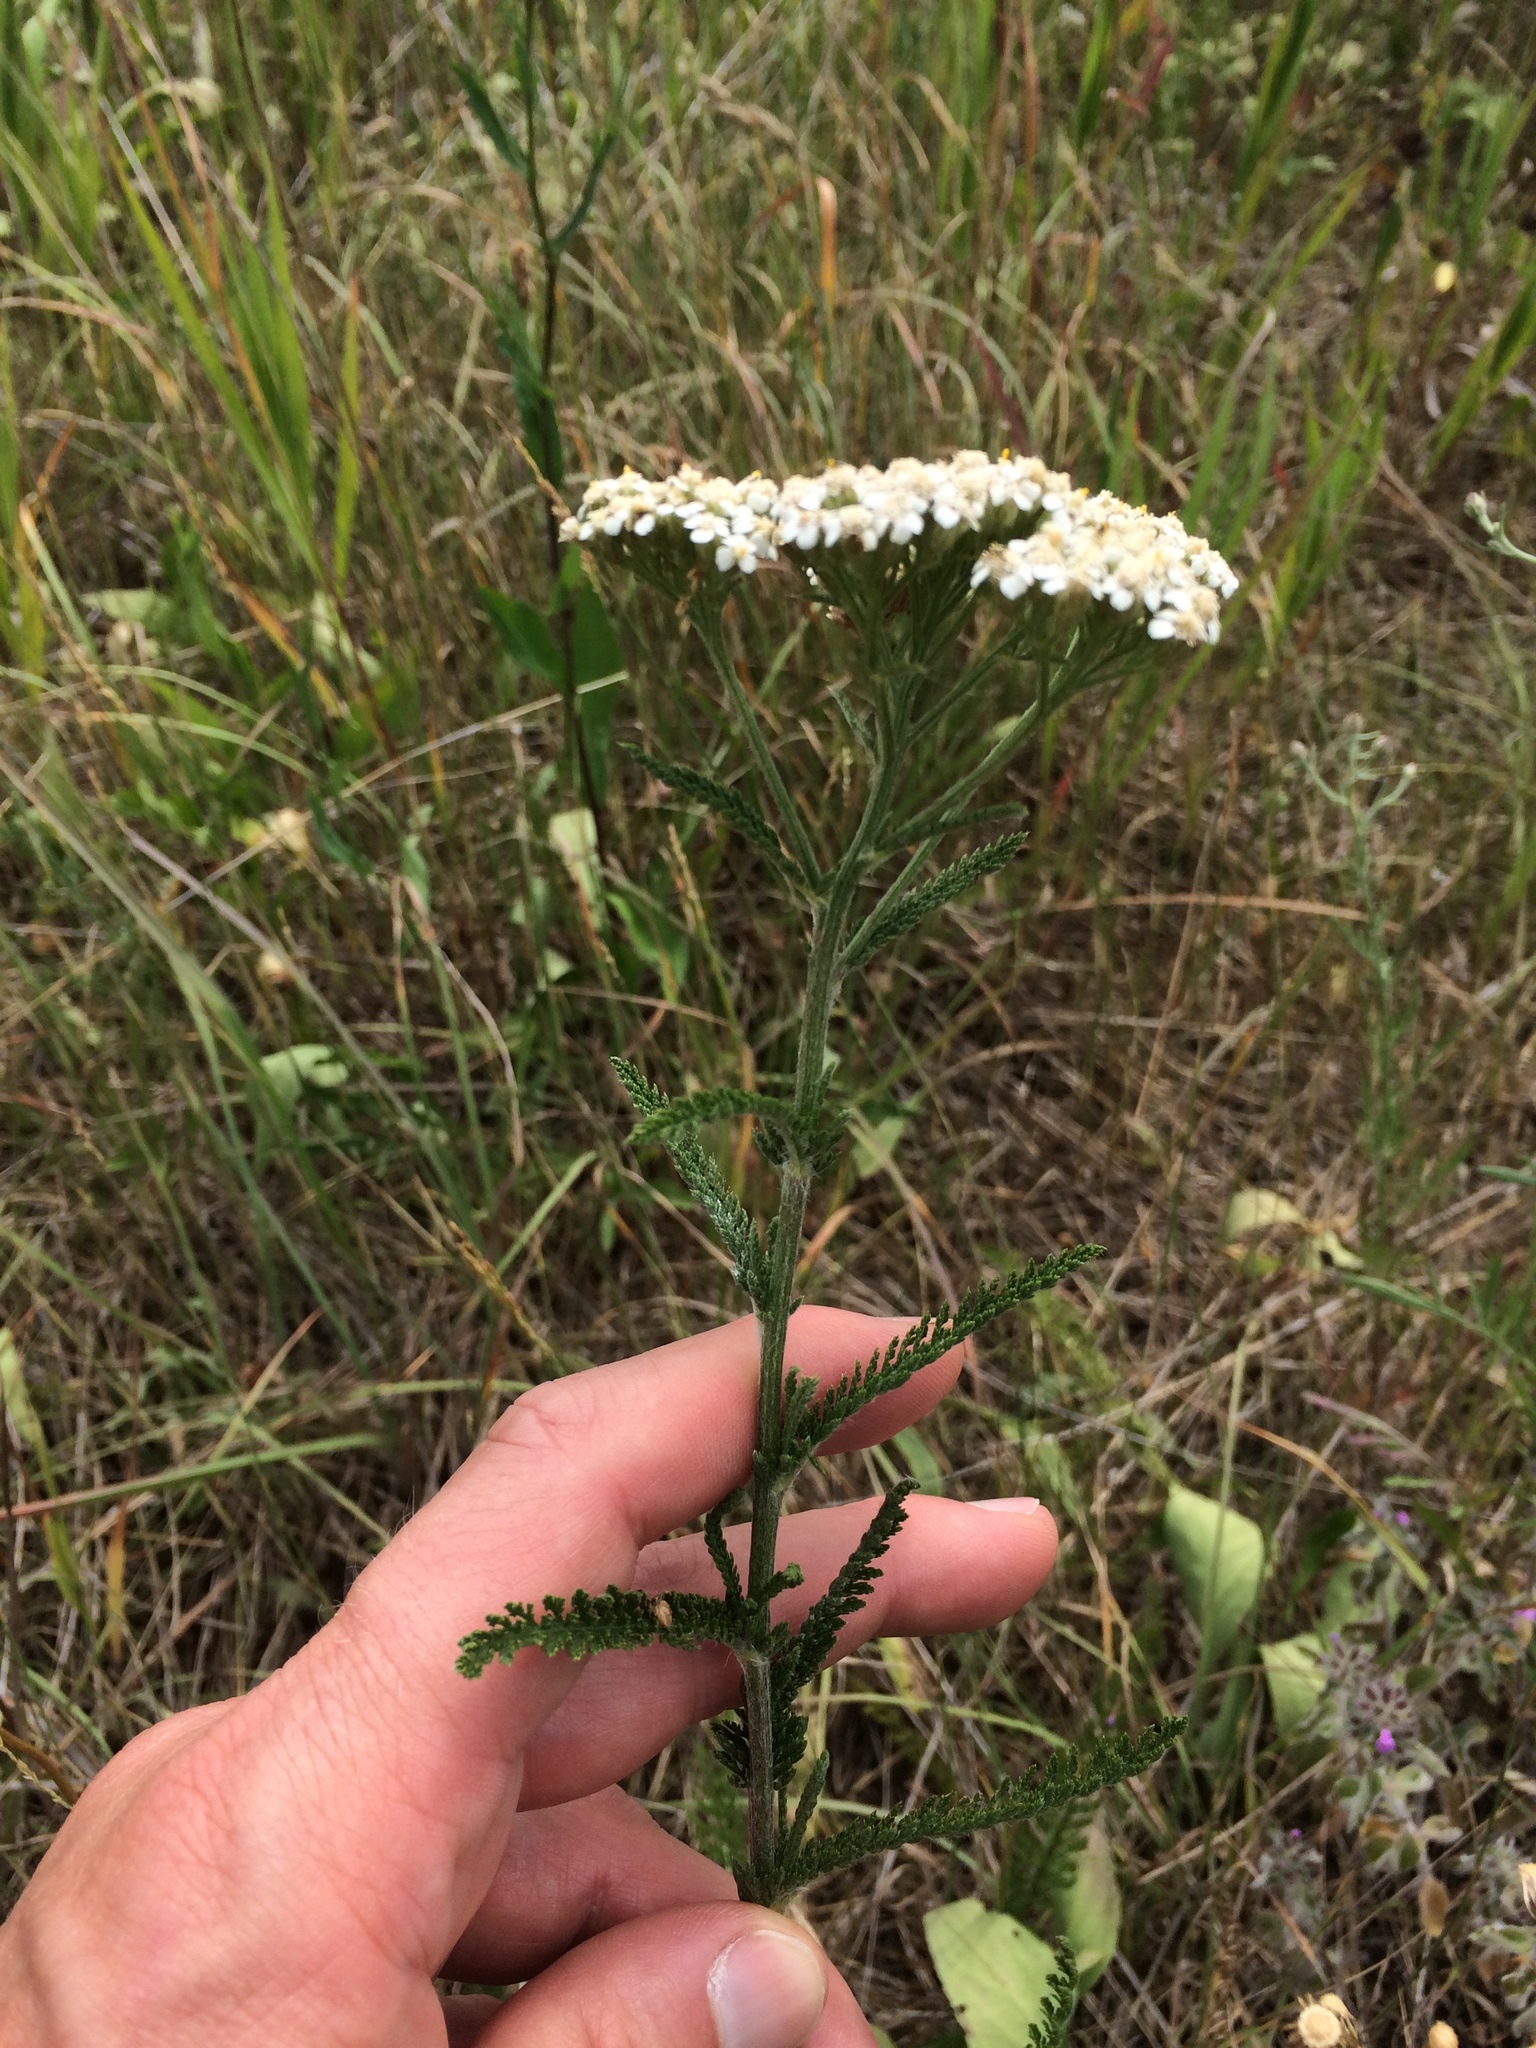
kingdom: Plantae
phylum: Tracheophyta
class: Magnoliopsida
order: Asterales
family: Asteraceae
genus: Achillea
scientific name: Achillea millefolium
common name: Yarrow
